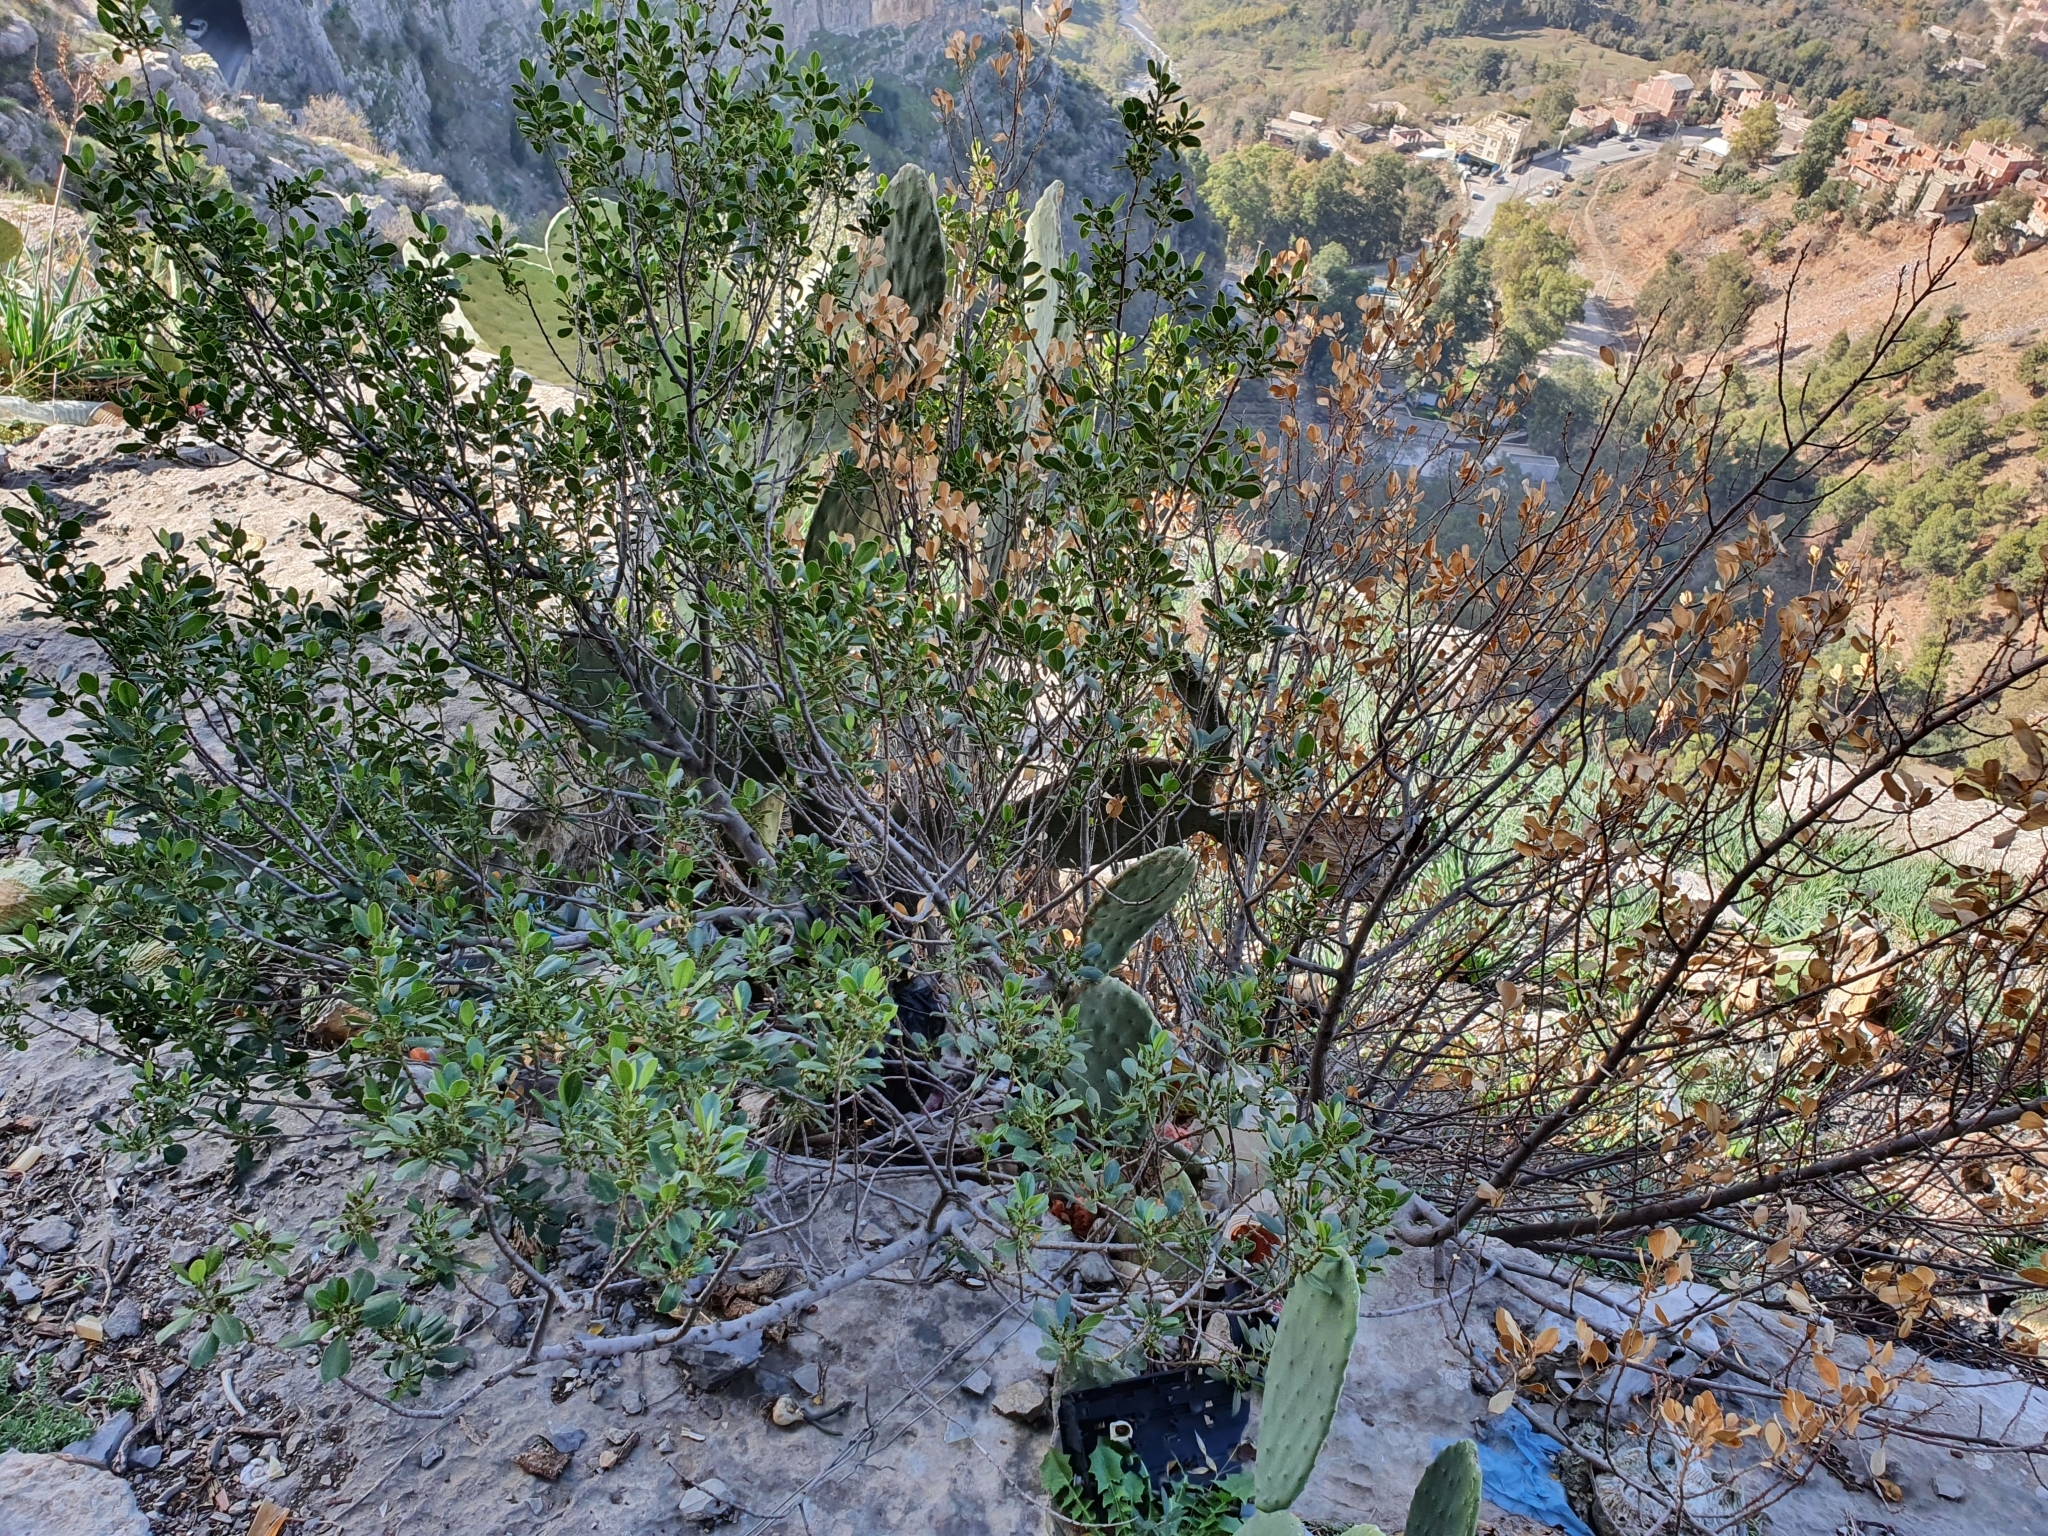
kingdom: Plantae
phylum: Tracheophyta
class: Magnoliopsida
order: Rosales
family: Rhamnaceae
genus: Rhamnus
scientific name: Rhamnus alaternus
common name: Mediterranean buckthorn
